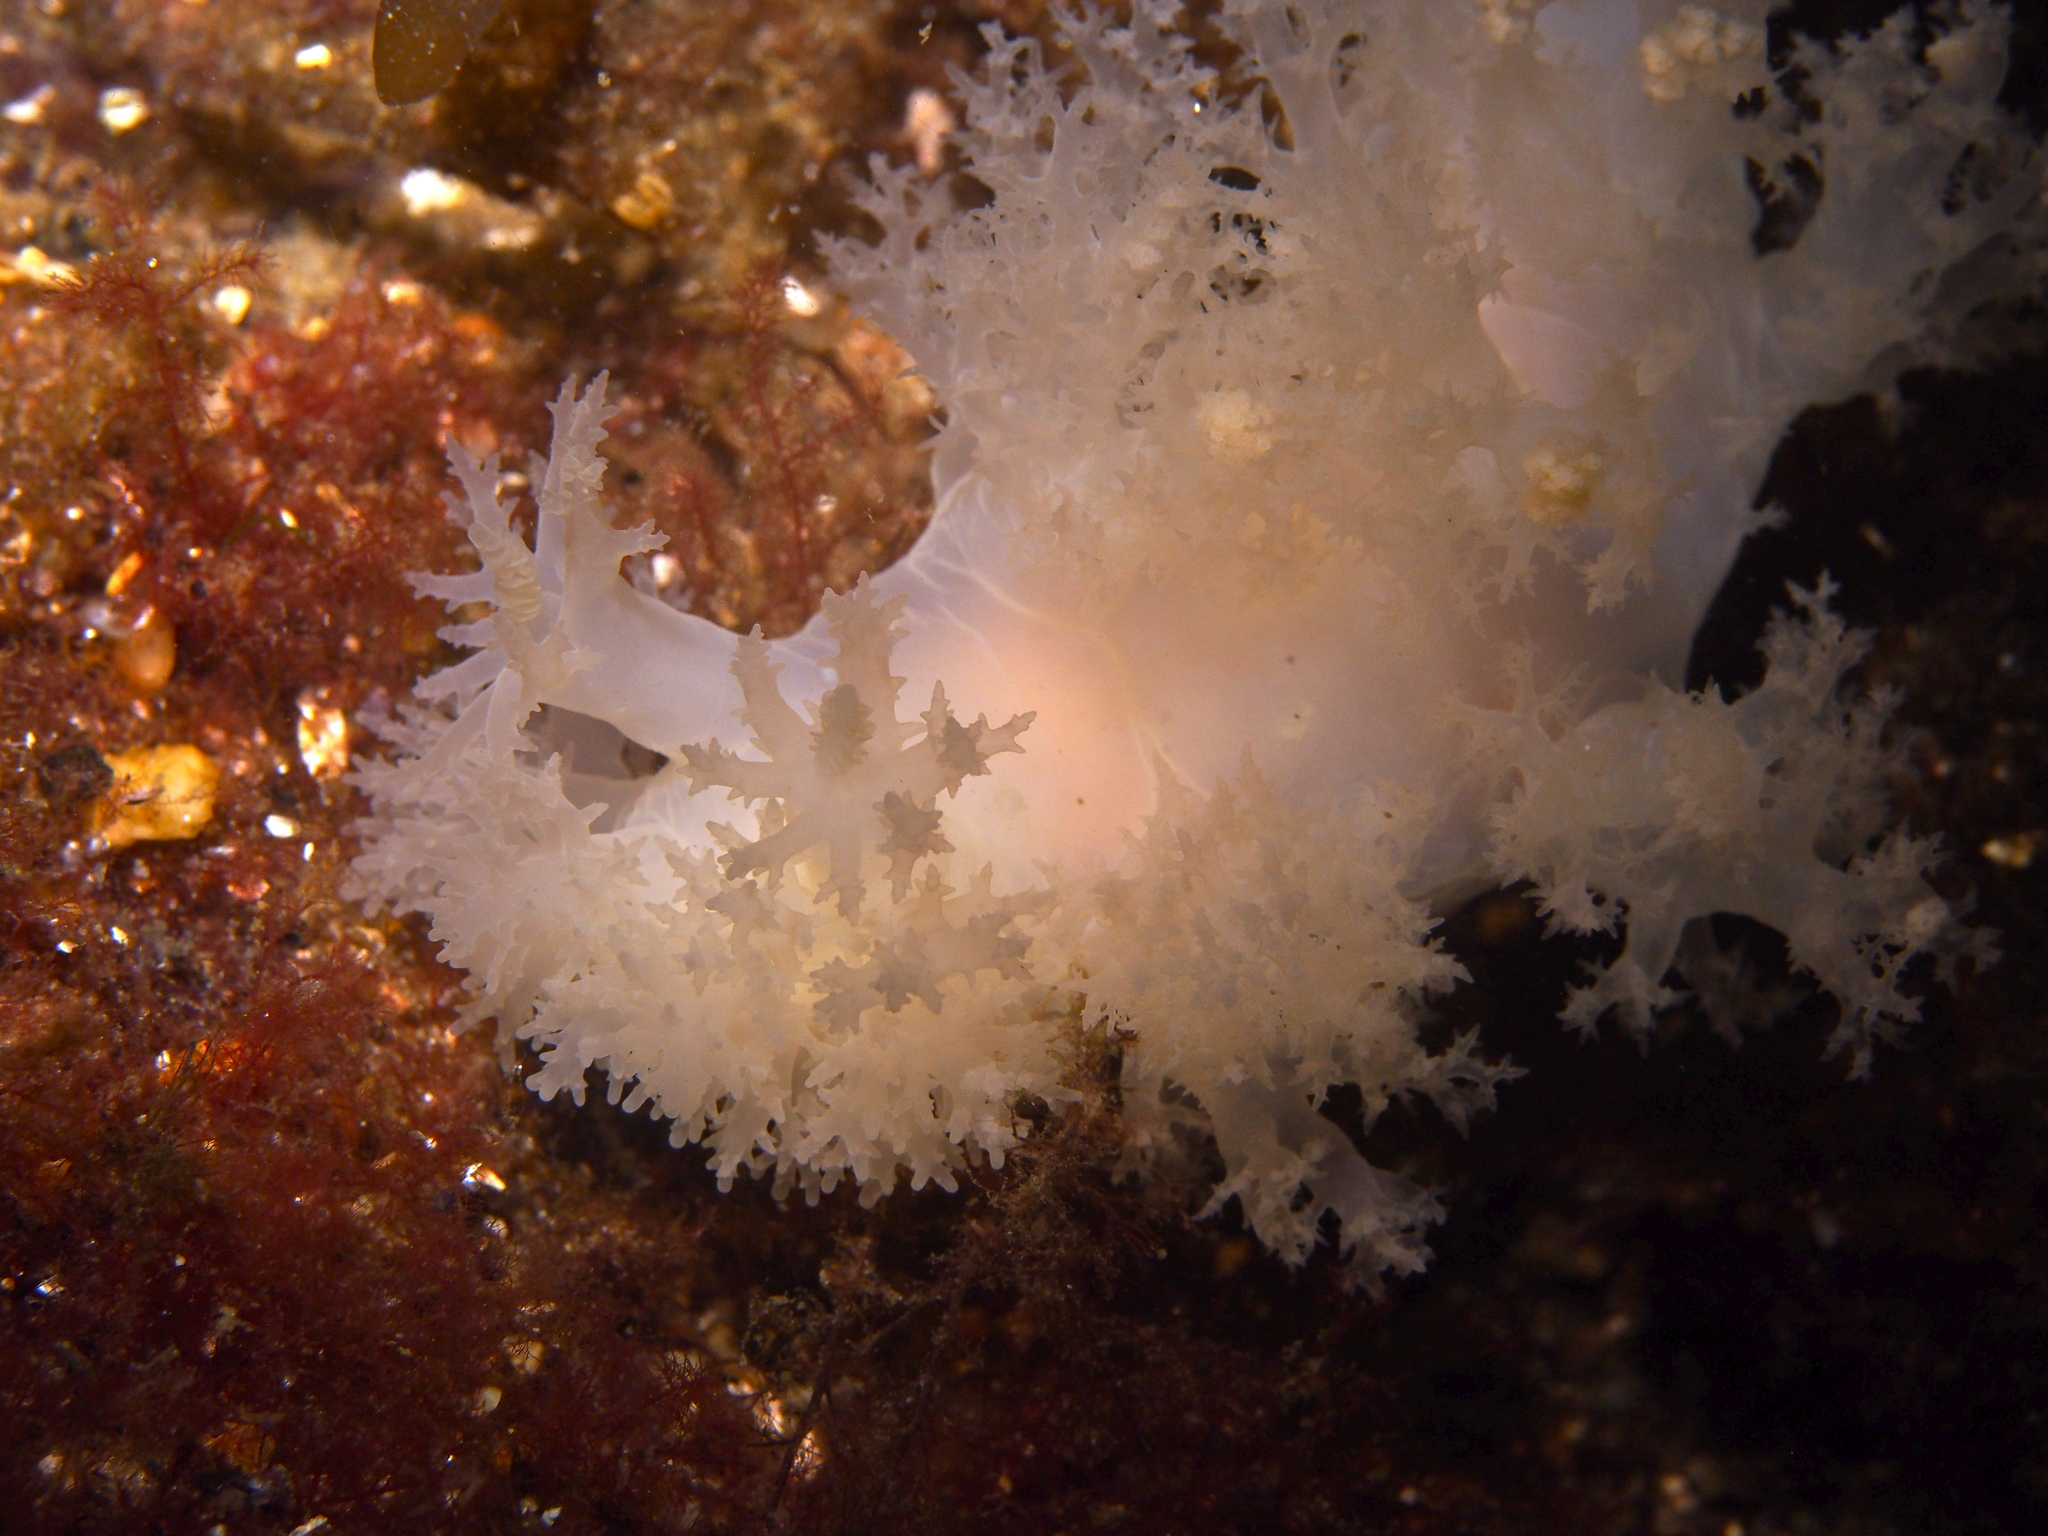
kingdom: Animalia
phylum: Mollusca
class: Gastropoda
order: Nudibranchia
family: Dendronotidae
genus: Dendronotus
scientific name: Dendronotus lacteus
